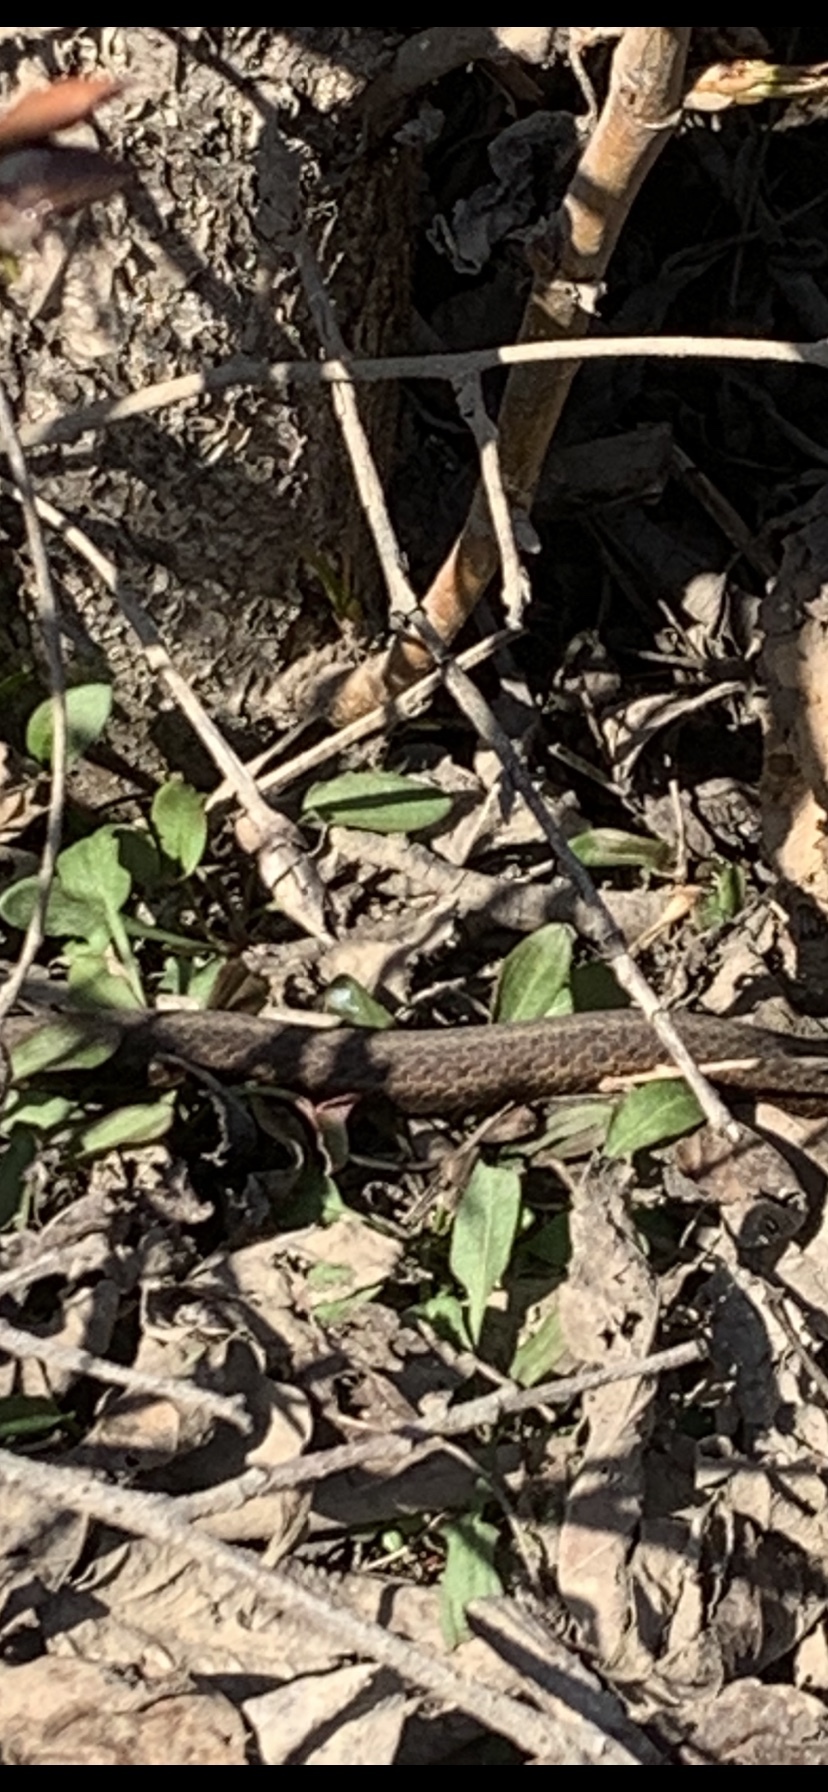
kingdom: Animalia
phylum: Chordata
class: Squamata
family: Colubridae
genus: Thamnophis
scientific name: Thamnophis ordinoides
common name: Northwestern garter snake
